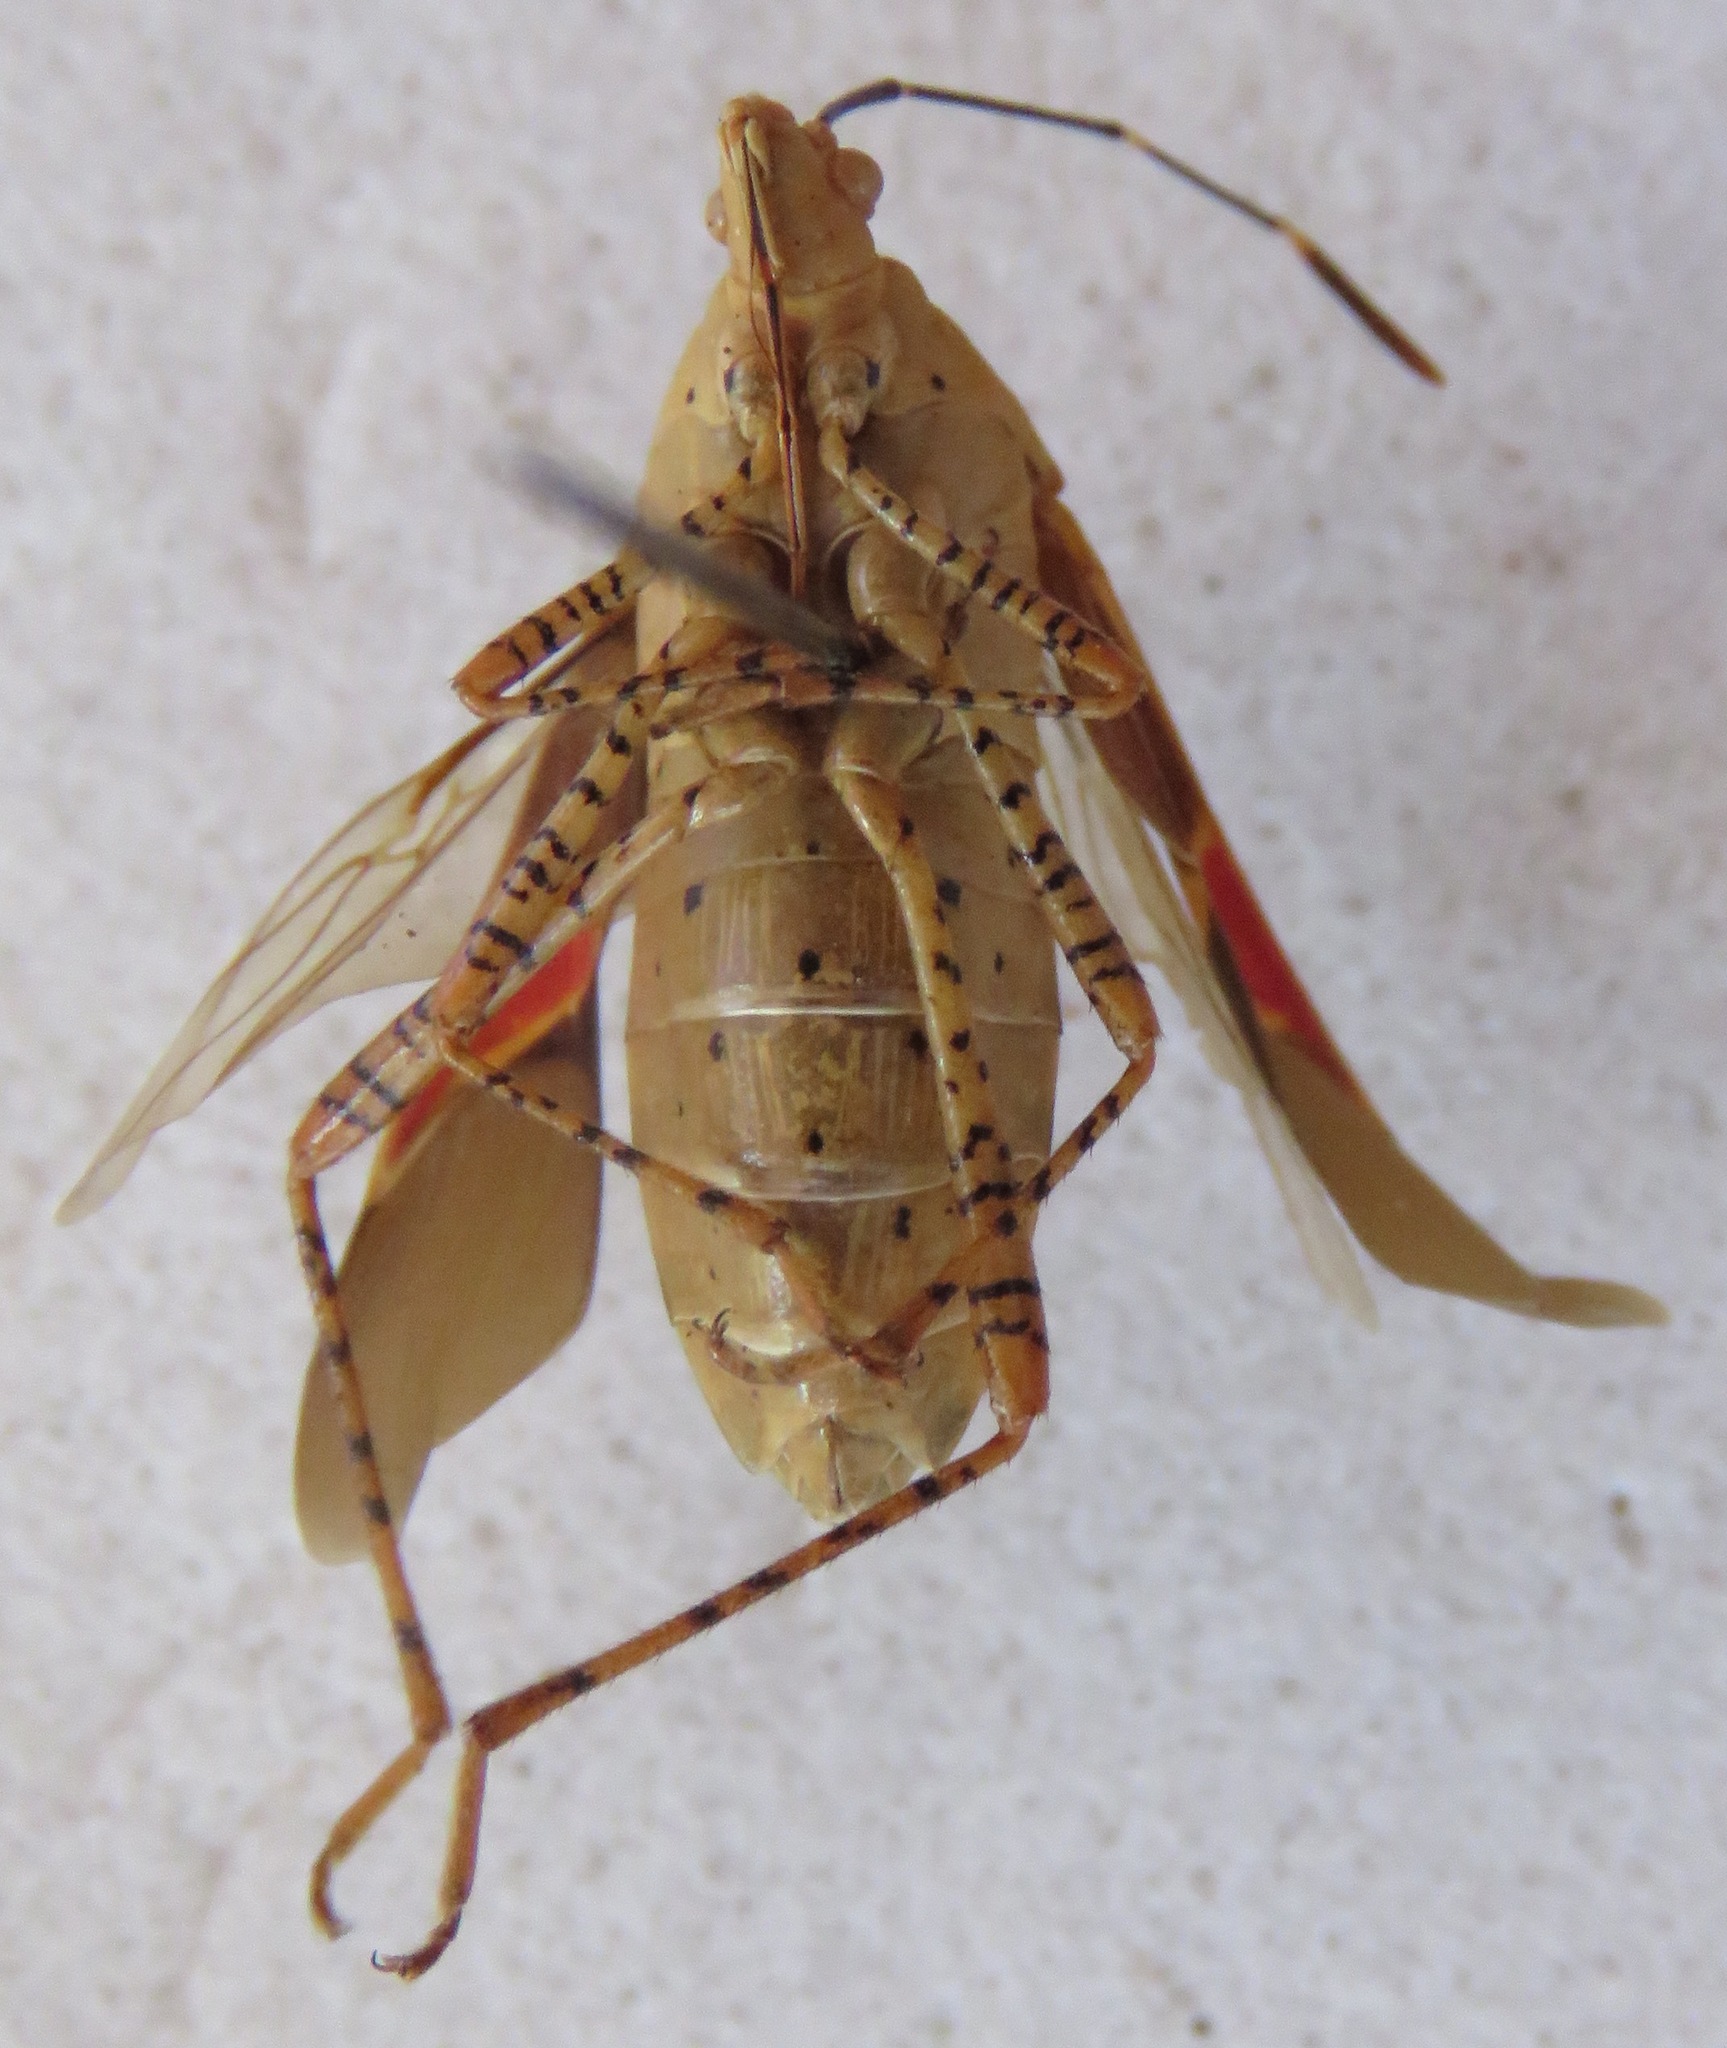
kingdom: Animalia
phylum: Arthropoda
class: Insecta
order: Hemiptera
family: Coreidae
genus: Hypselonotus
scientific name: Hypselonotus punctiventris
